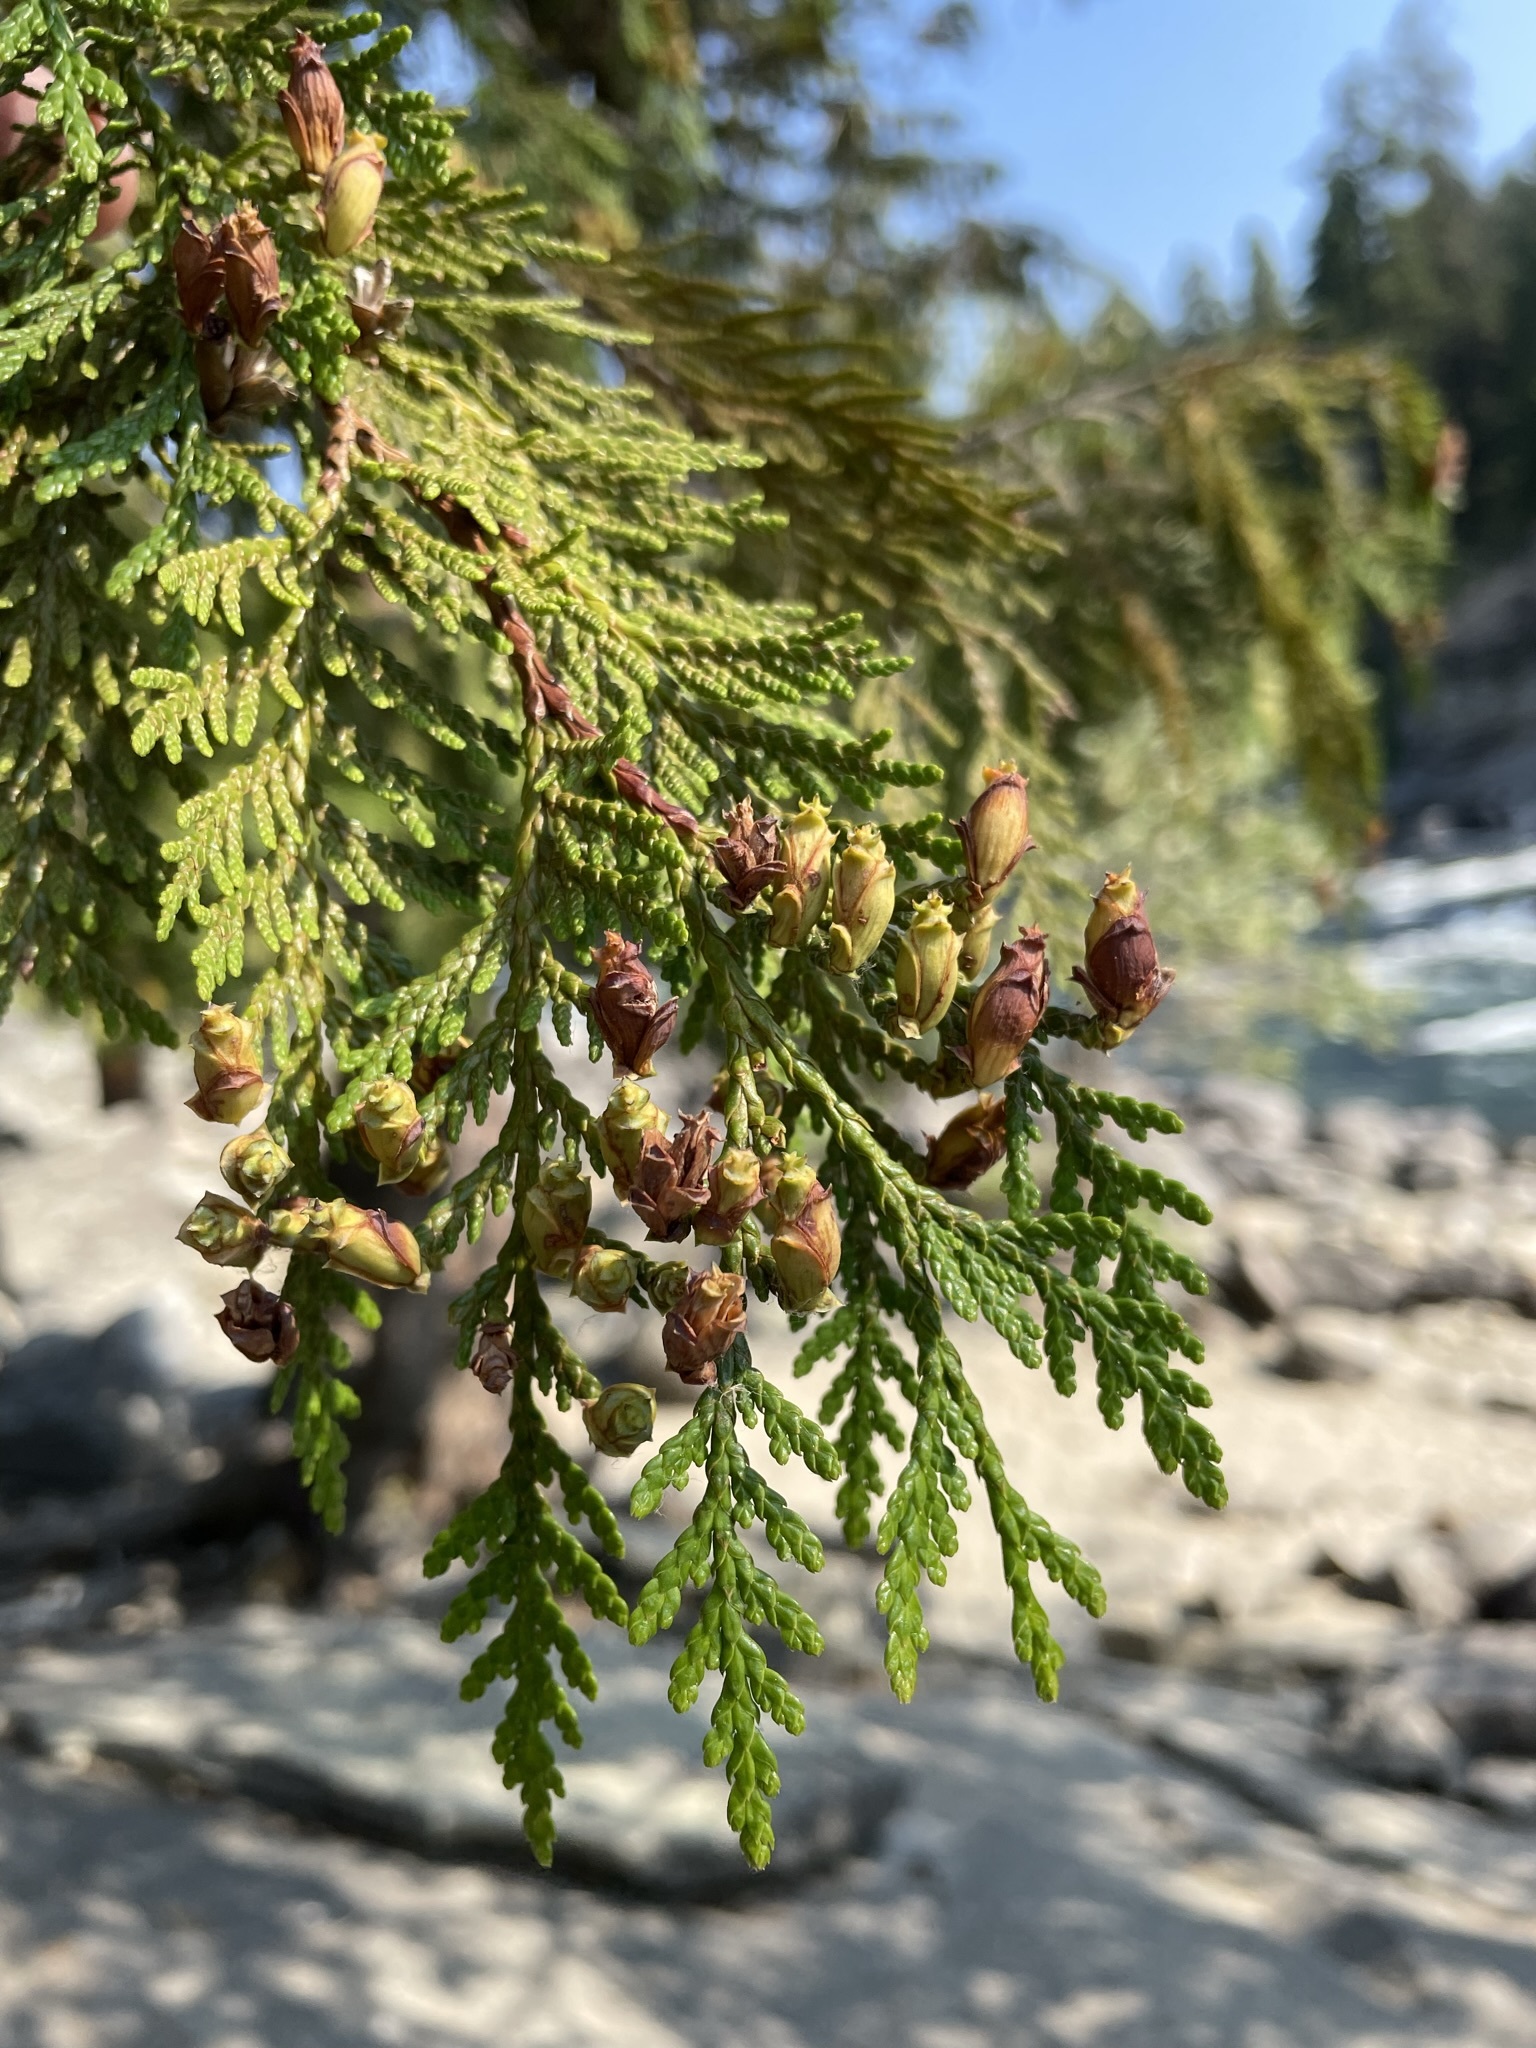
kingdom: Plantae
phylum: Tracheophyta
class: Pinopsida
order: Pinales
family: Cupressaceae
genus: Thuja
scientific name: Thuja plicata
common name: Western red-cedar
